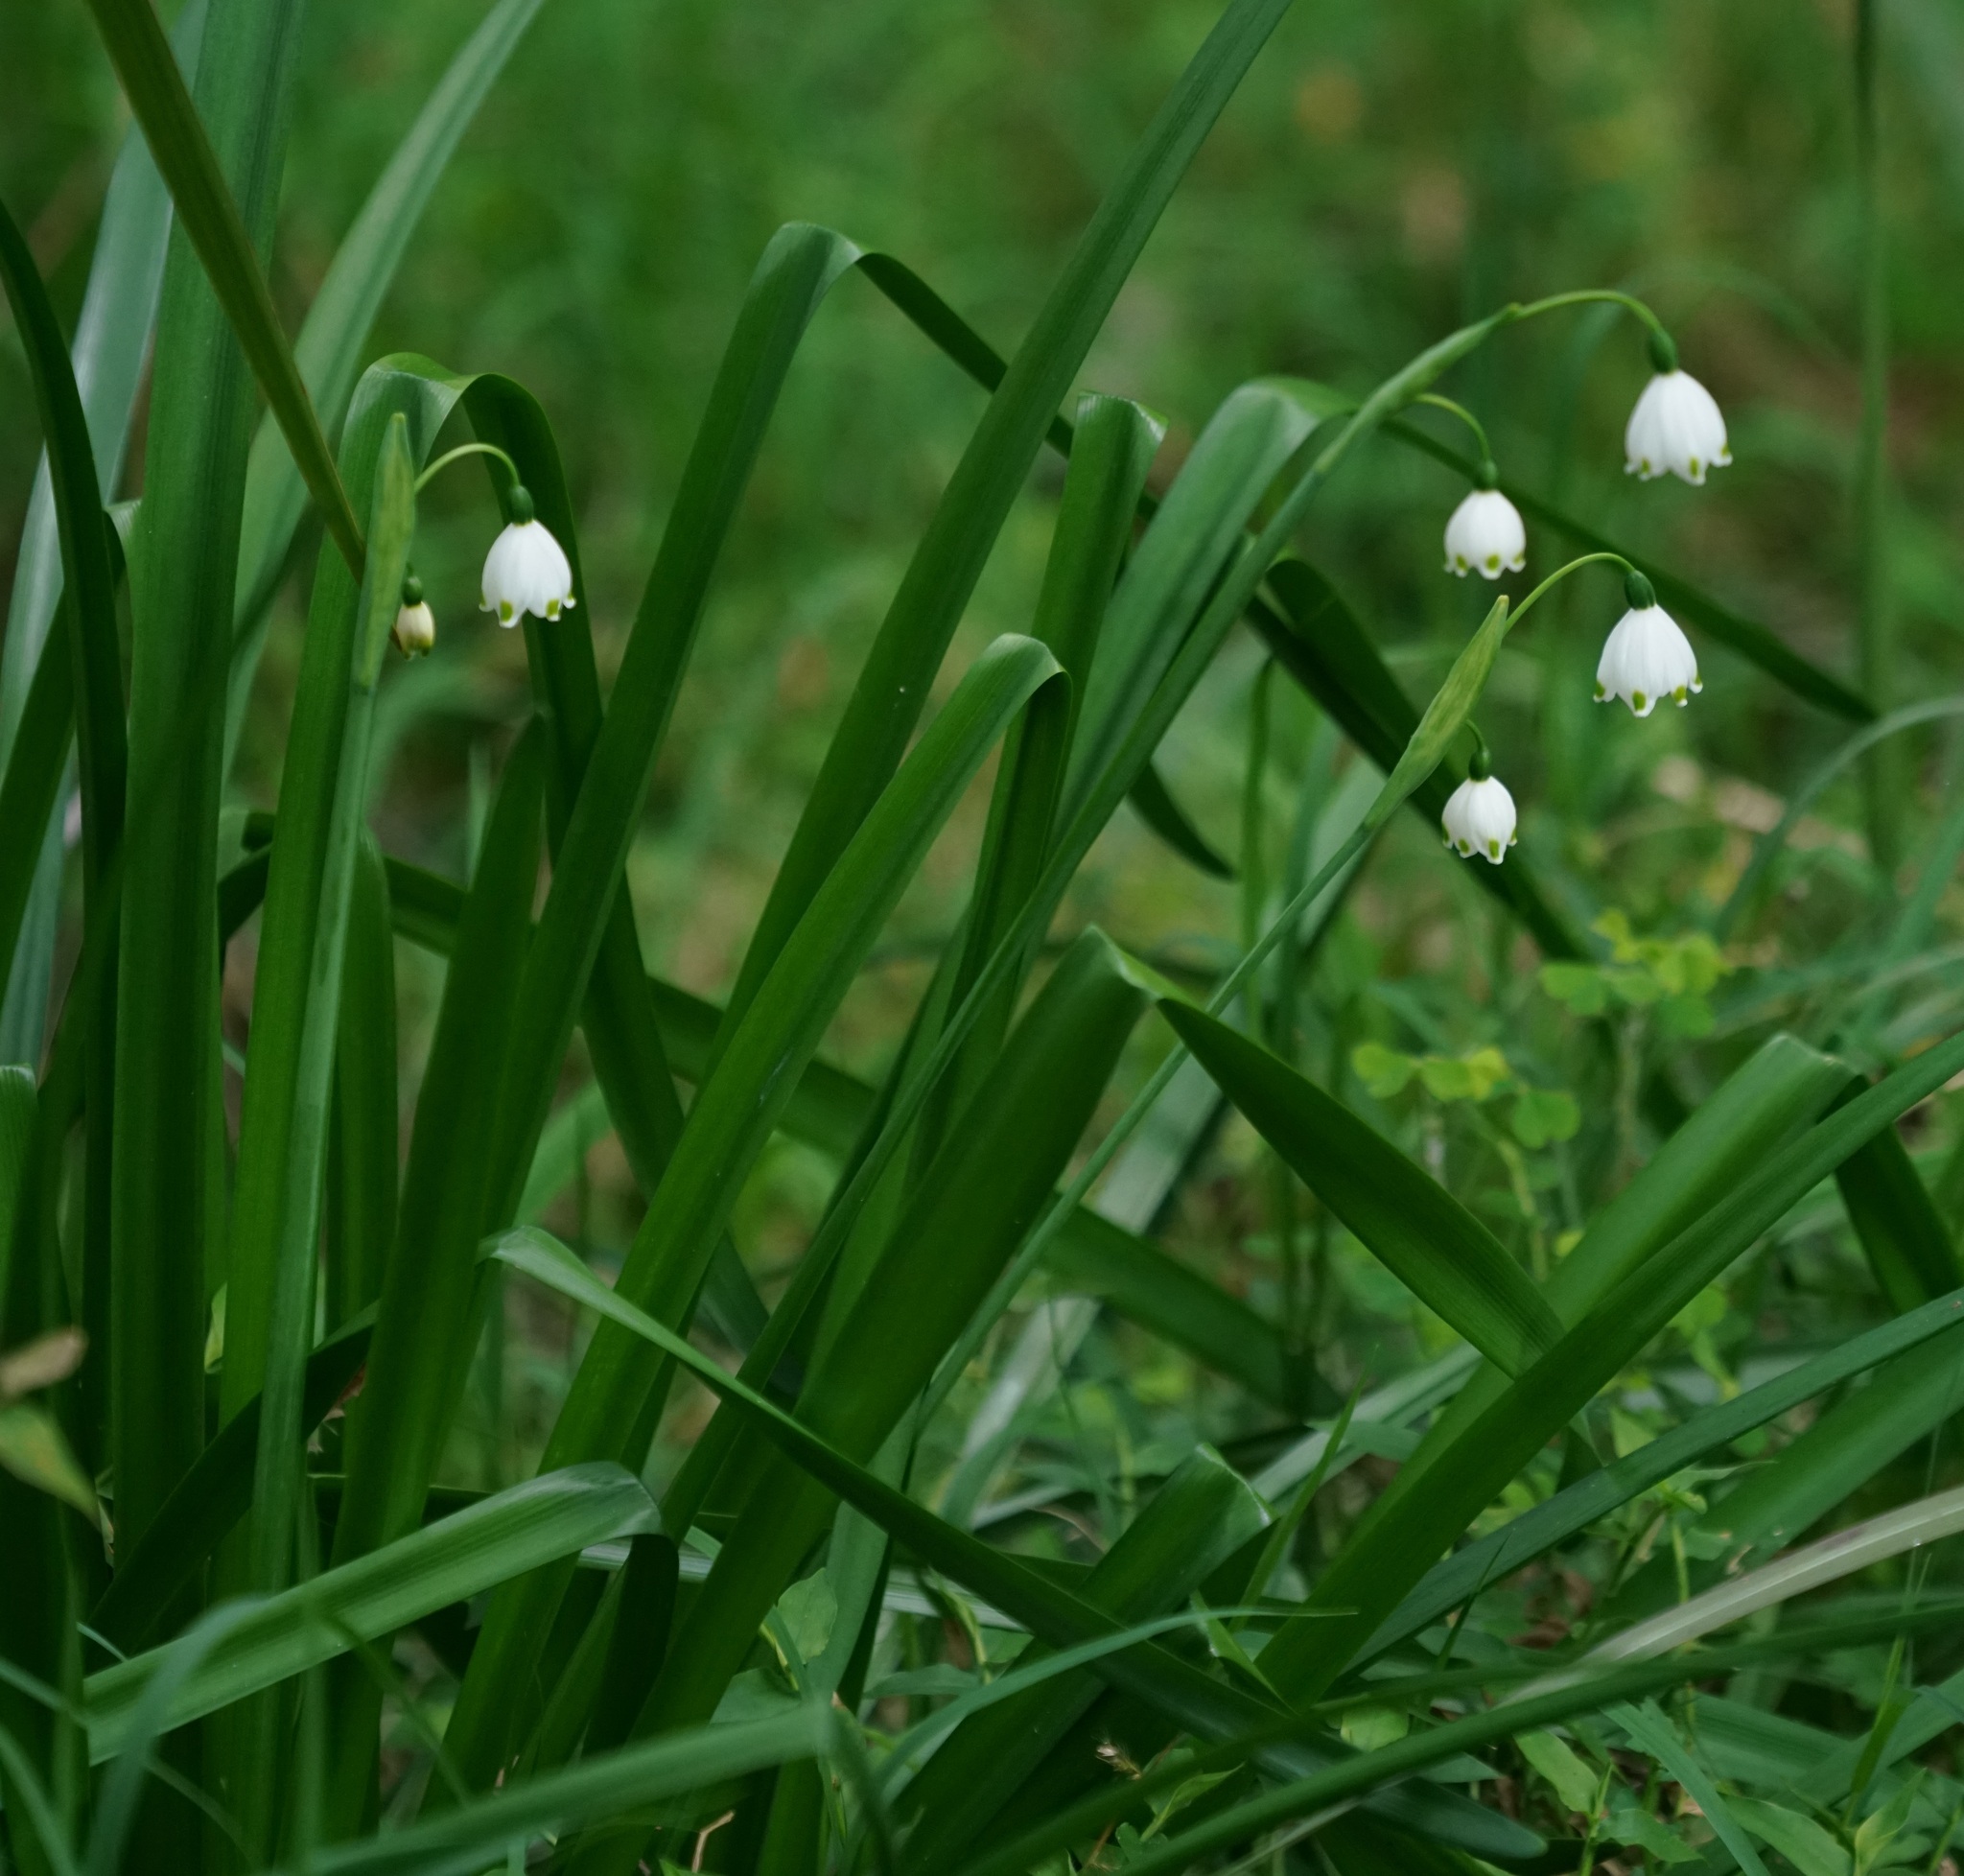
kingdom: Plantae
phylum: Tracheophyta
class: Liliopsida
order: Asparagales
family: Amaryllidaceae
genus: Leucojum
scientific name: Leucojum aestivum
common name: Summer snowflake
